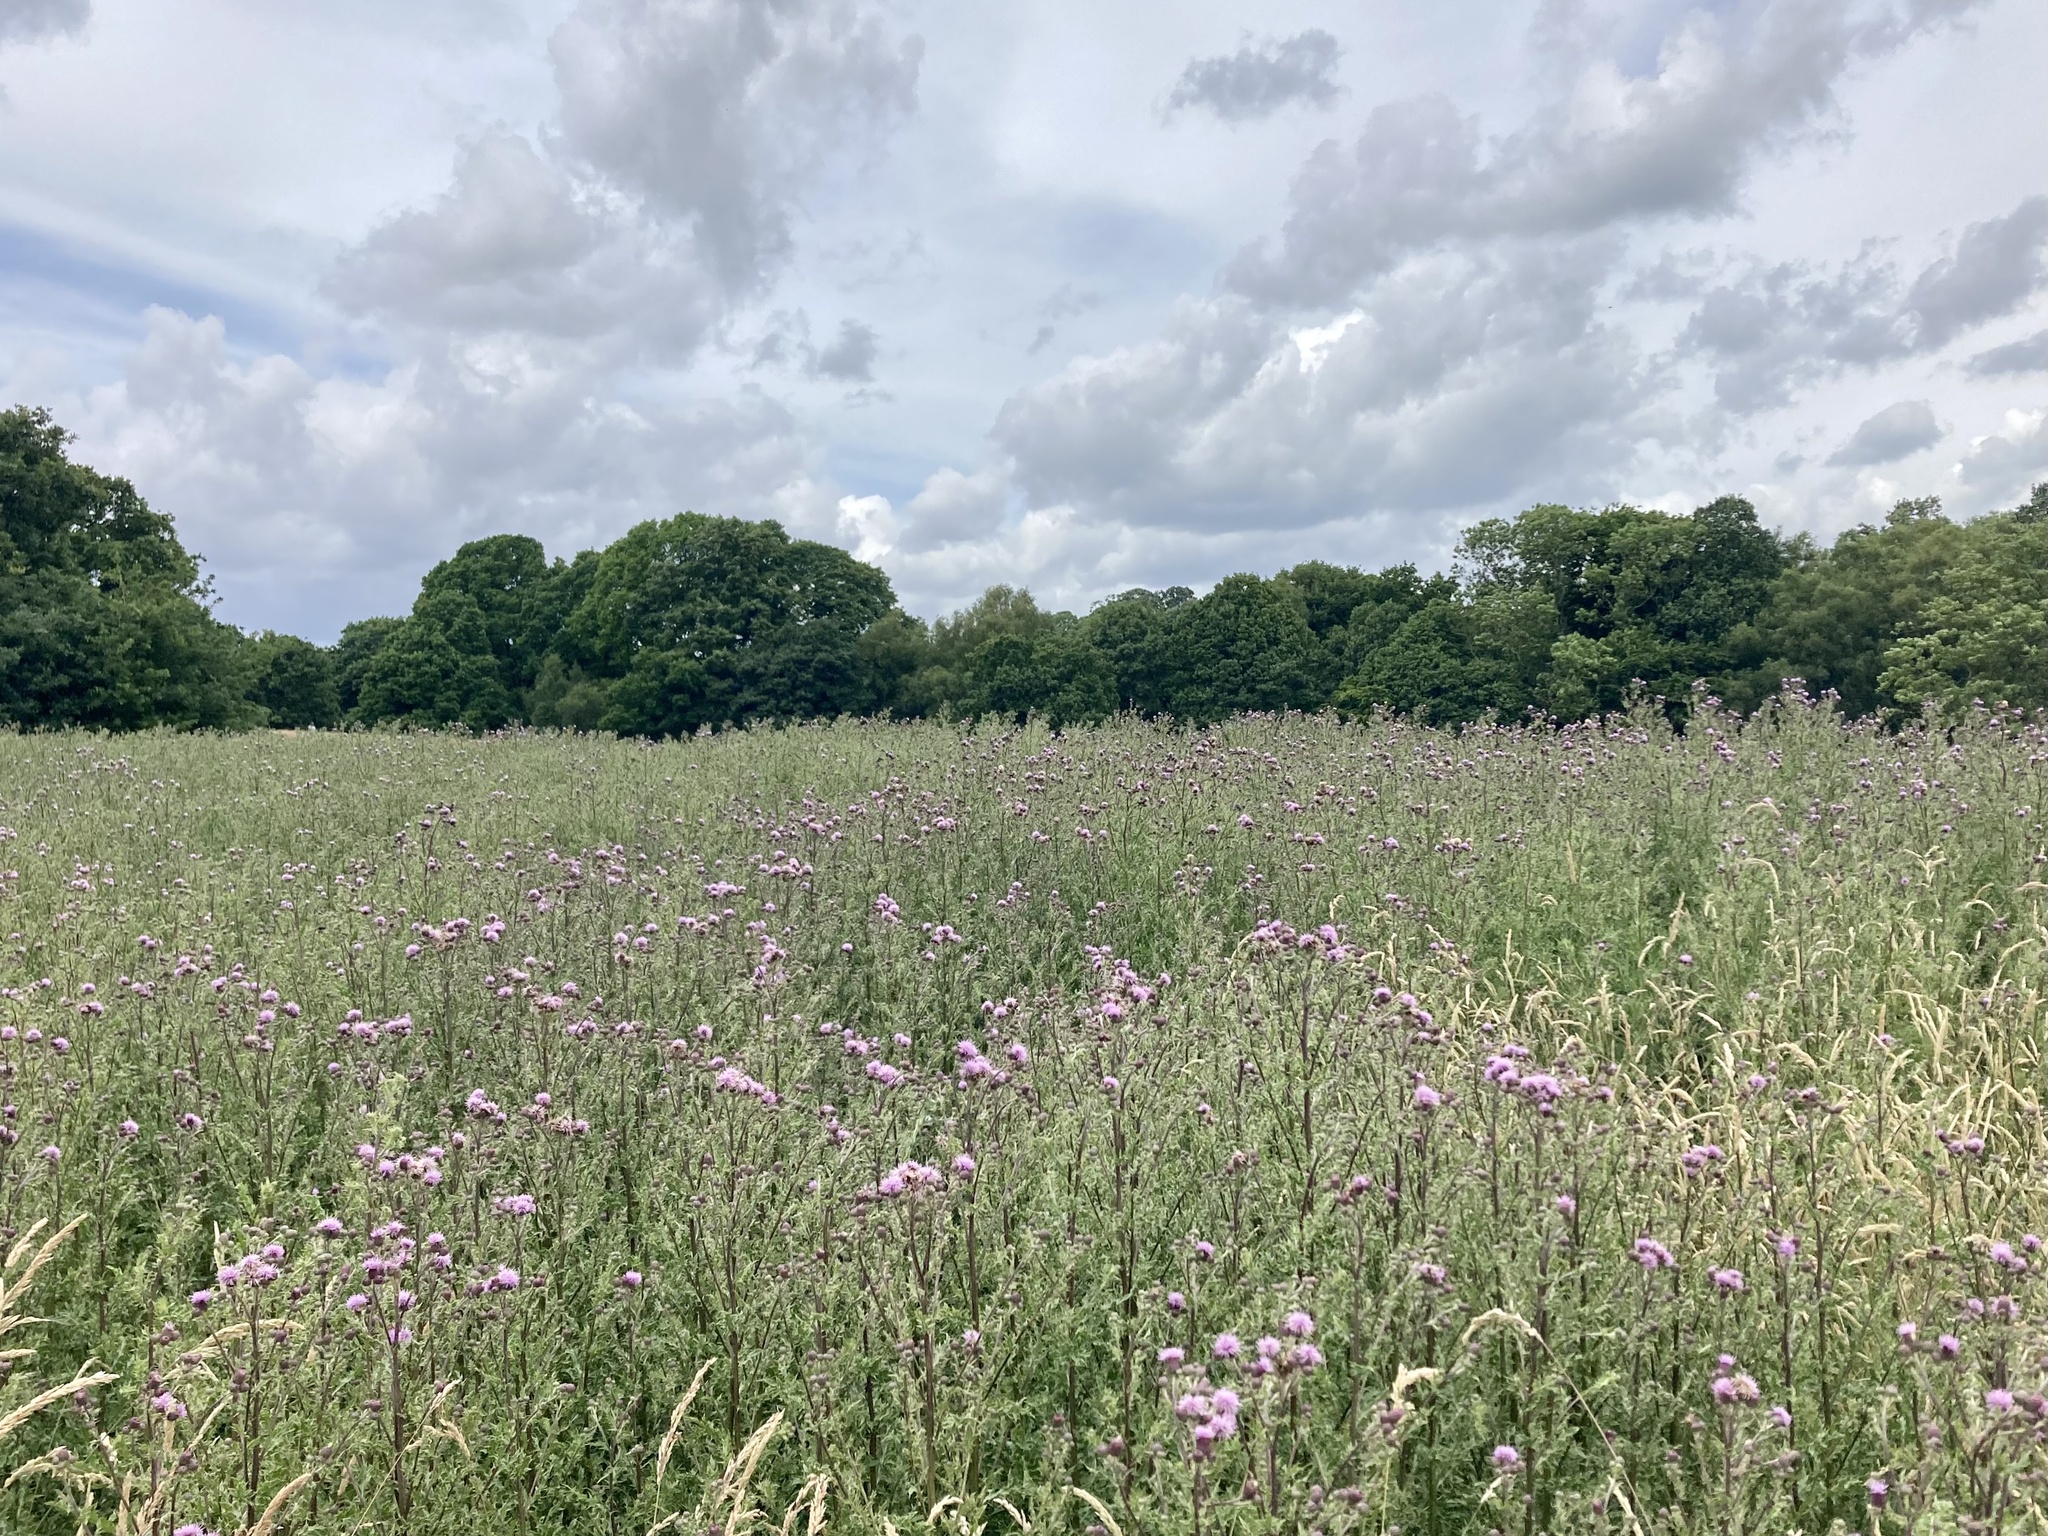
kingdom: Plantae
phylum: Tracheophyta
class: Magnoliopsida
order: Asterales
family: Asteraceae
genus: Cirsium
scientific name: Cirsium arvense
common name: Creeping thistle
